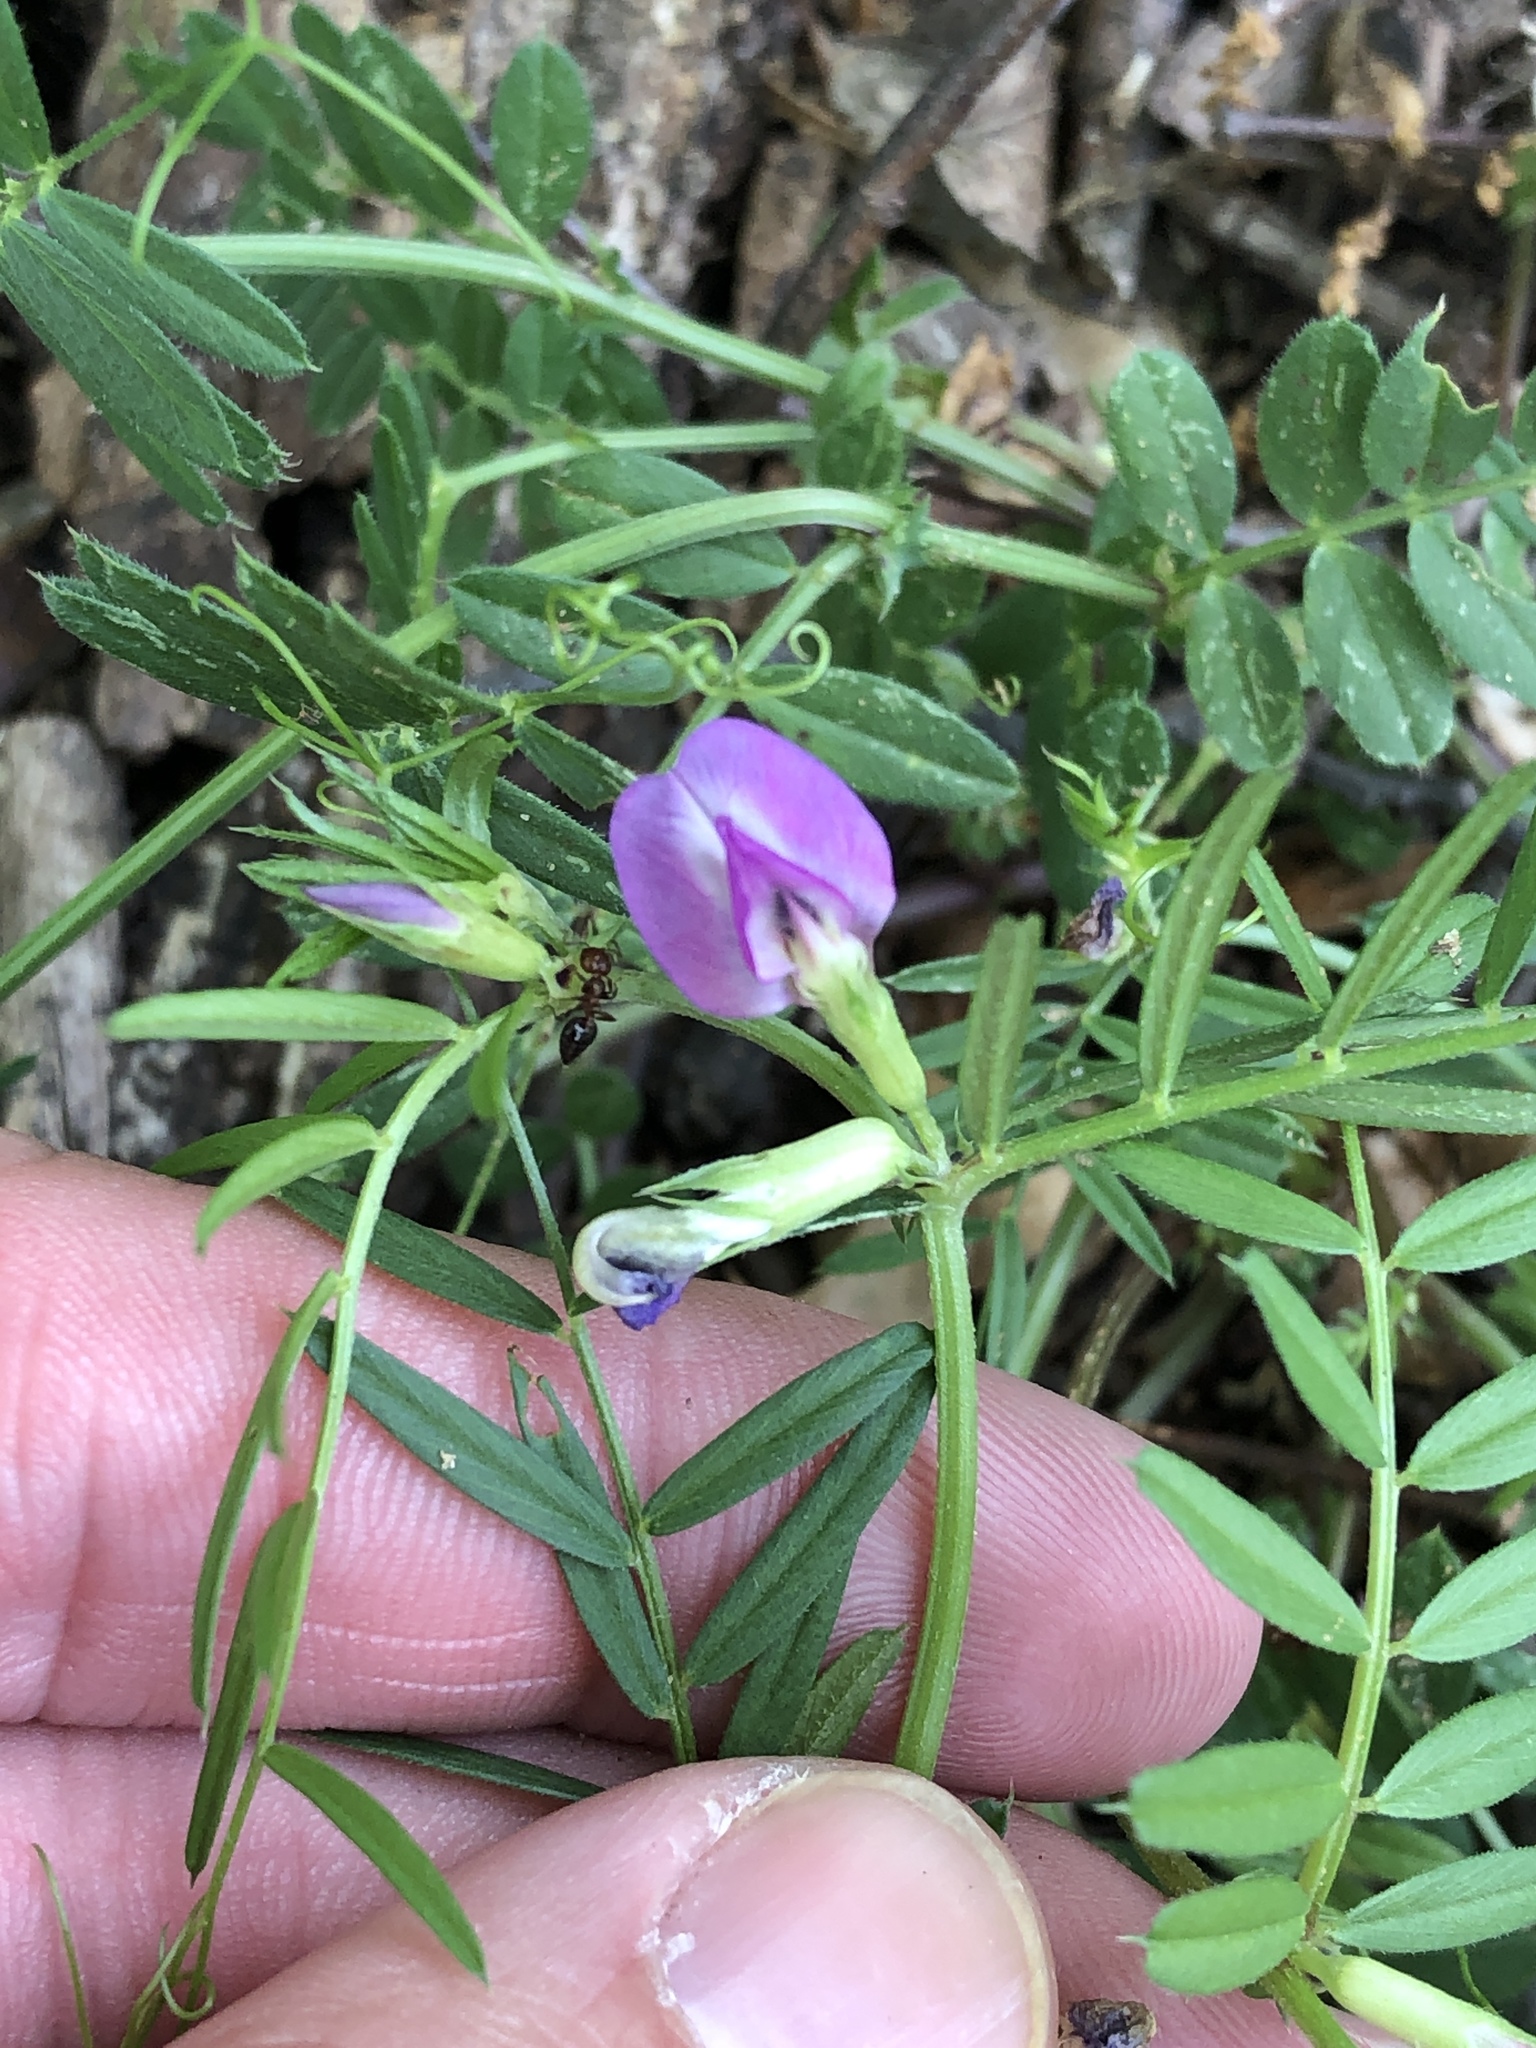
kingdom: Plantae
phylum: Tracheophyta
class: Magnoliopsida
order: Fabales
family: Fabaceae
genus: Vicia
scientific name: Vicia sativa
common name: Garden vetch
